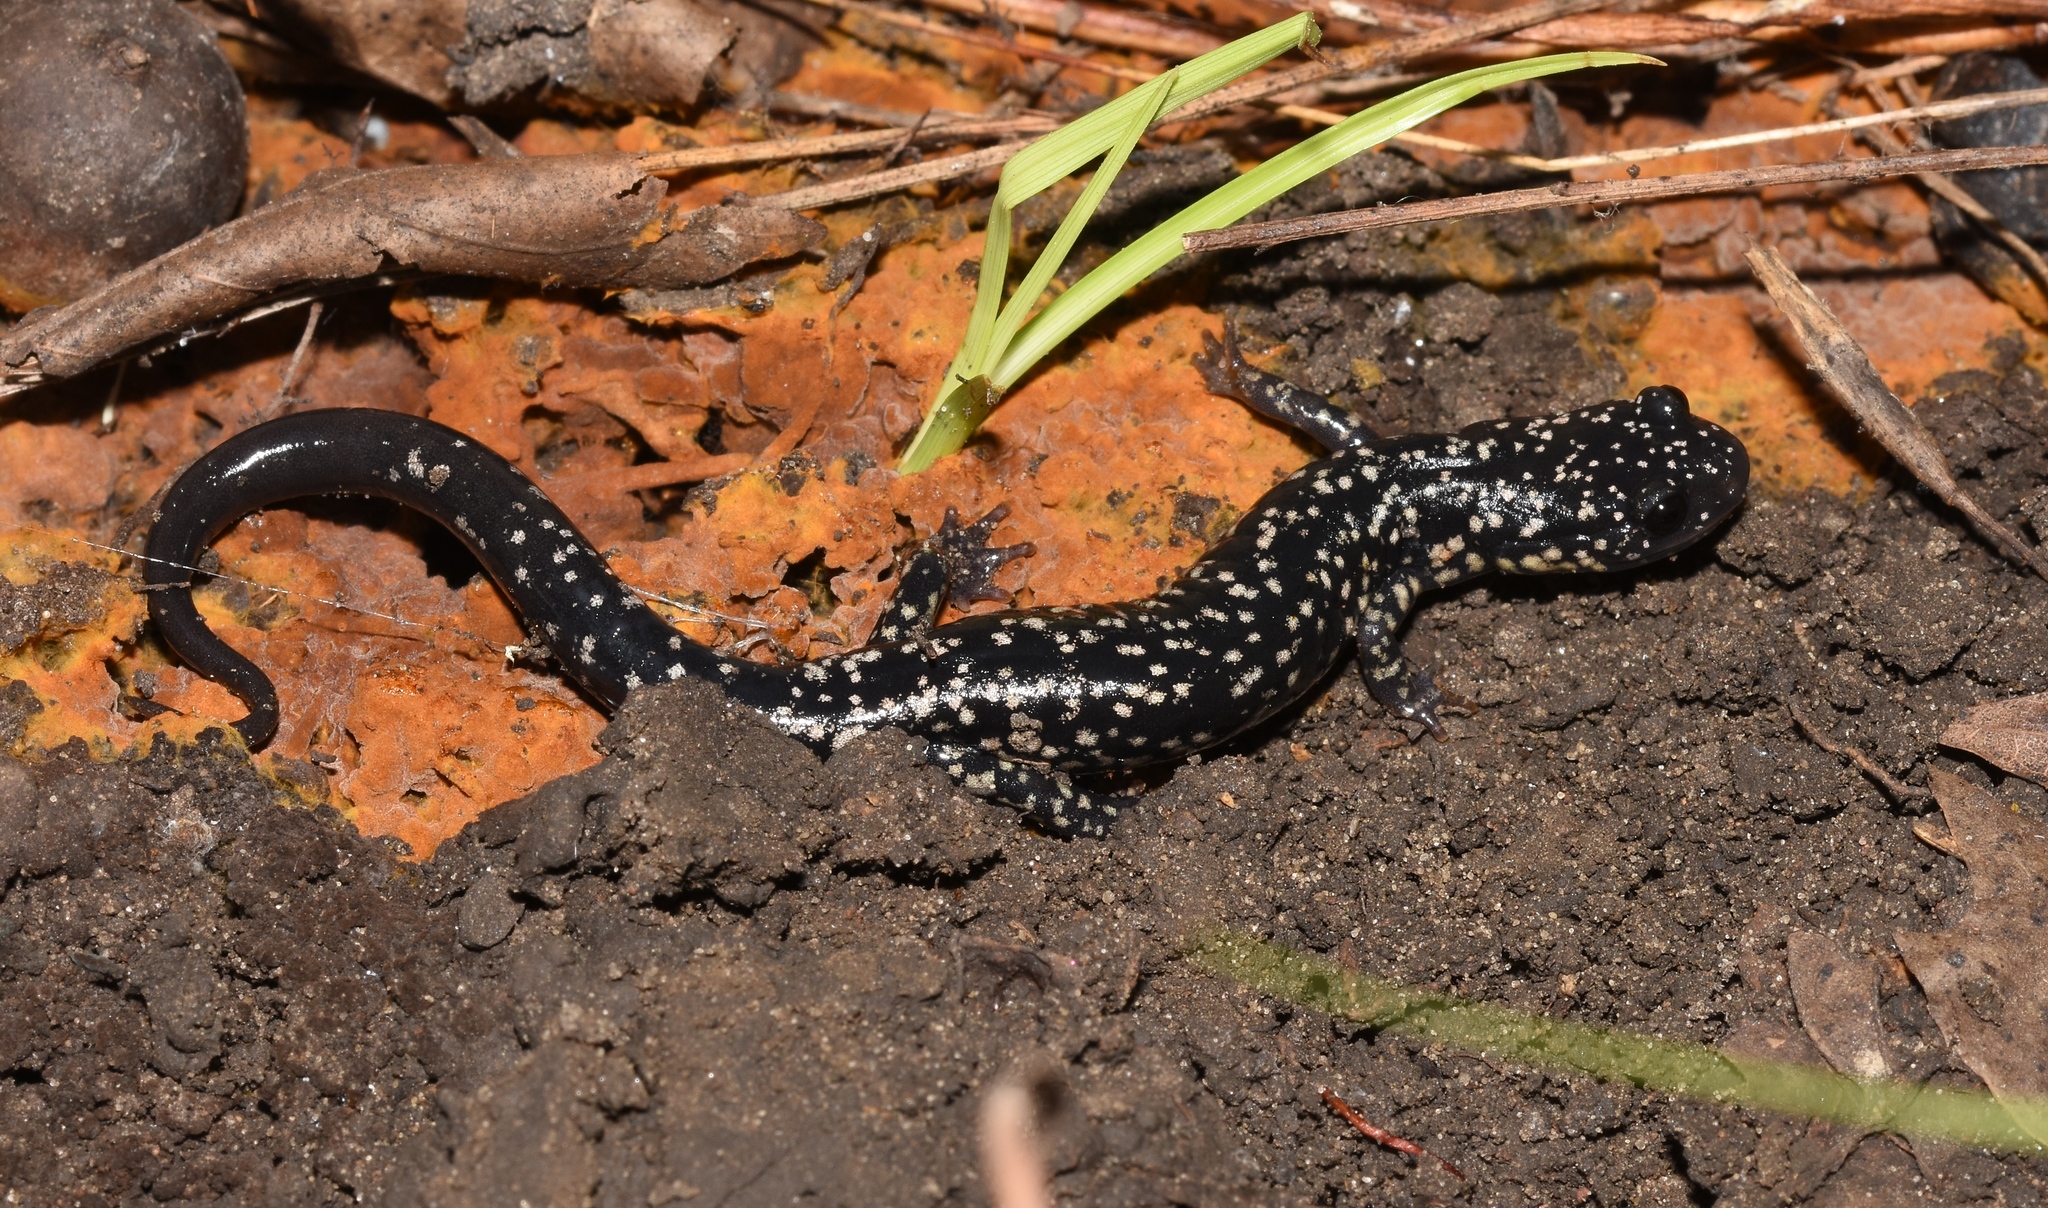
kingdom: Animalia
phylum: Chordata
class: Amphibia
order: Caudata
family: Plethodontidae
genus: Plethodon
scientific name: Plethodon albagula
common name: Western slimy salamander
